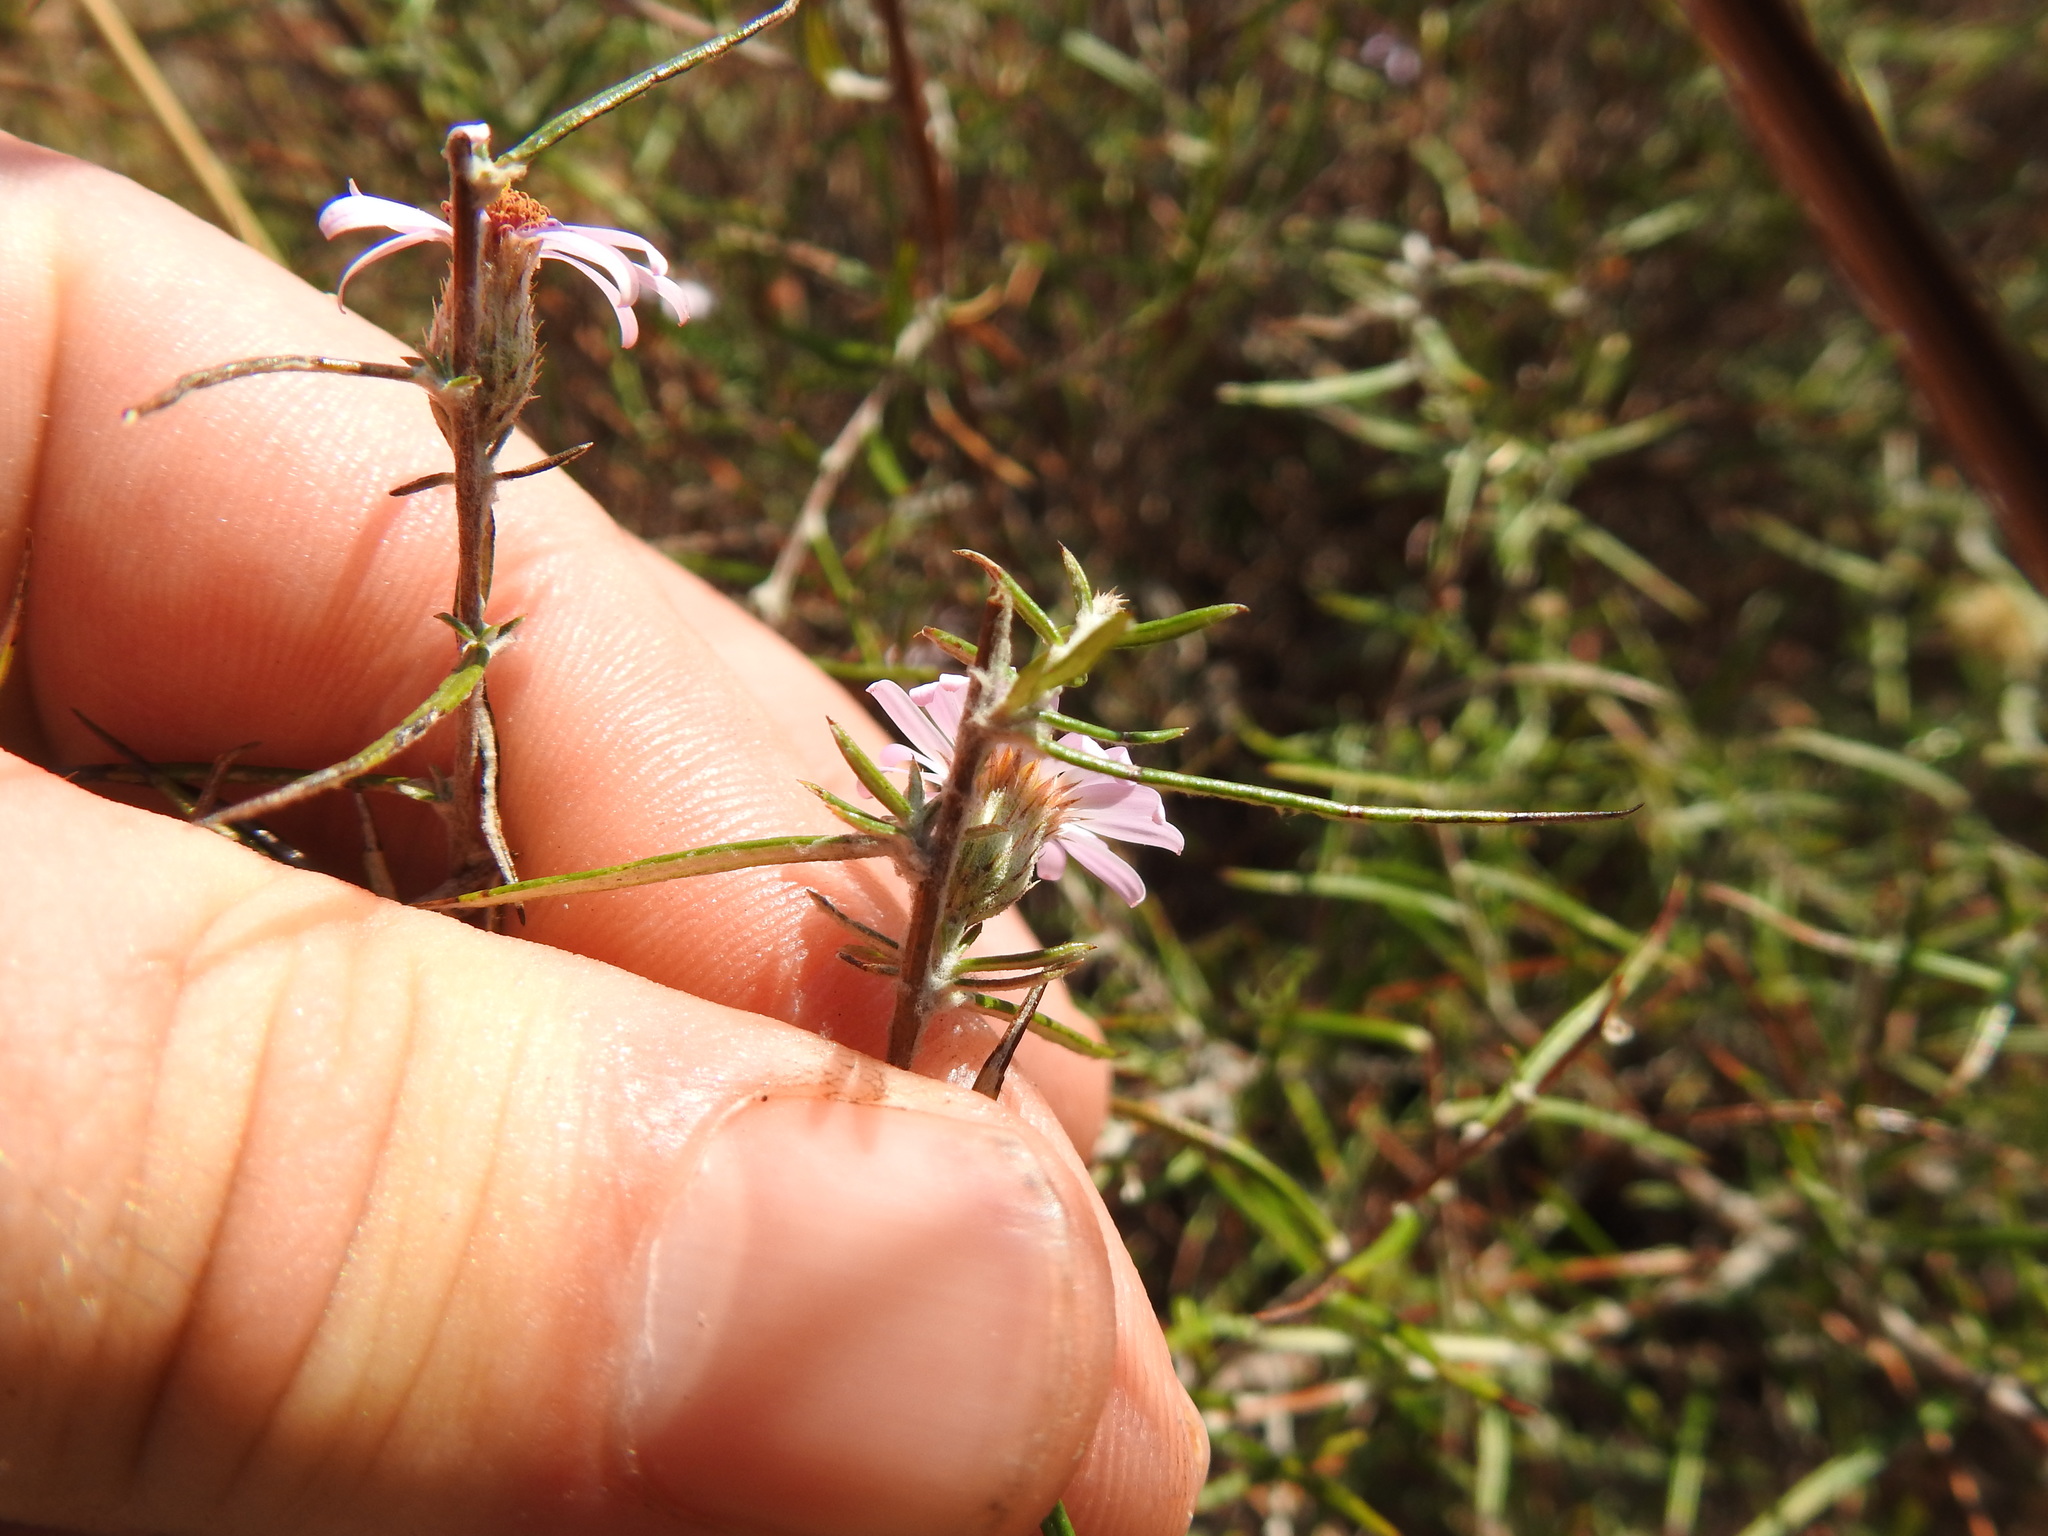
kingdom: Plantae
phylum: Tracheophyta
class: Magnoliopsida
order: Asterales
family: Asteraceae
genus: Athrixia
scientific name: Athrixia elata
